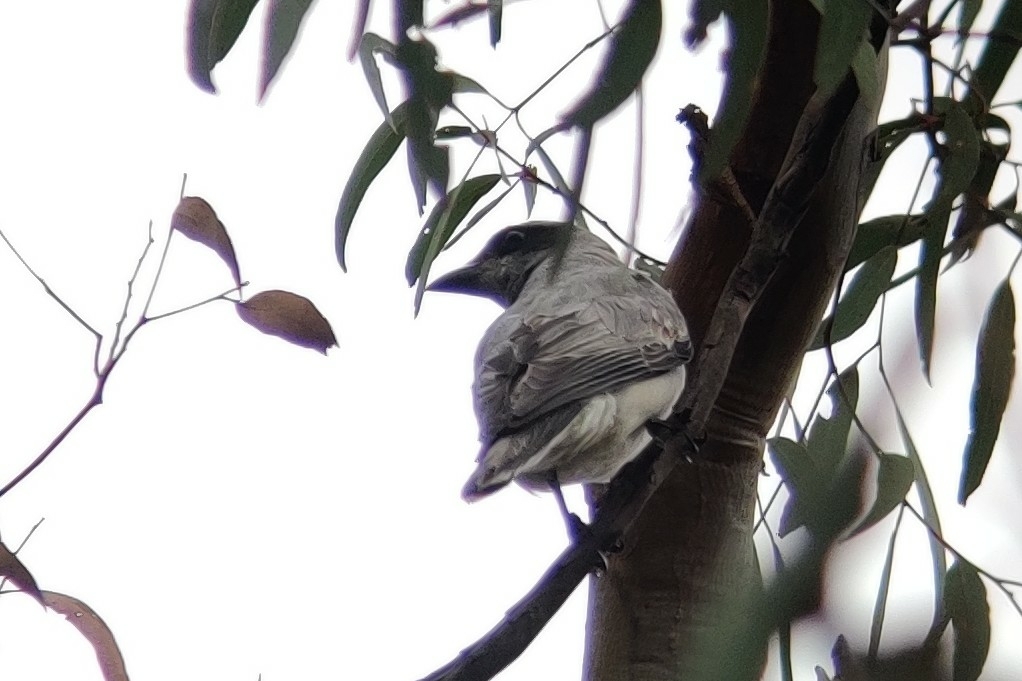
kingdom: Animalia
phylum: Chordata
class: Aves
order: Passeriformes
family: Campephagidae
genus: Coracina
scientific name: Coracina novaehollandiae
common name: Black-faced cuckooshrike
